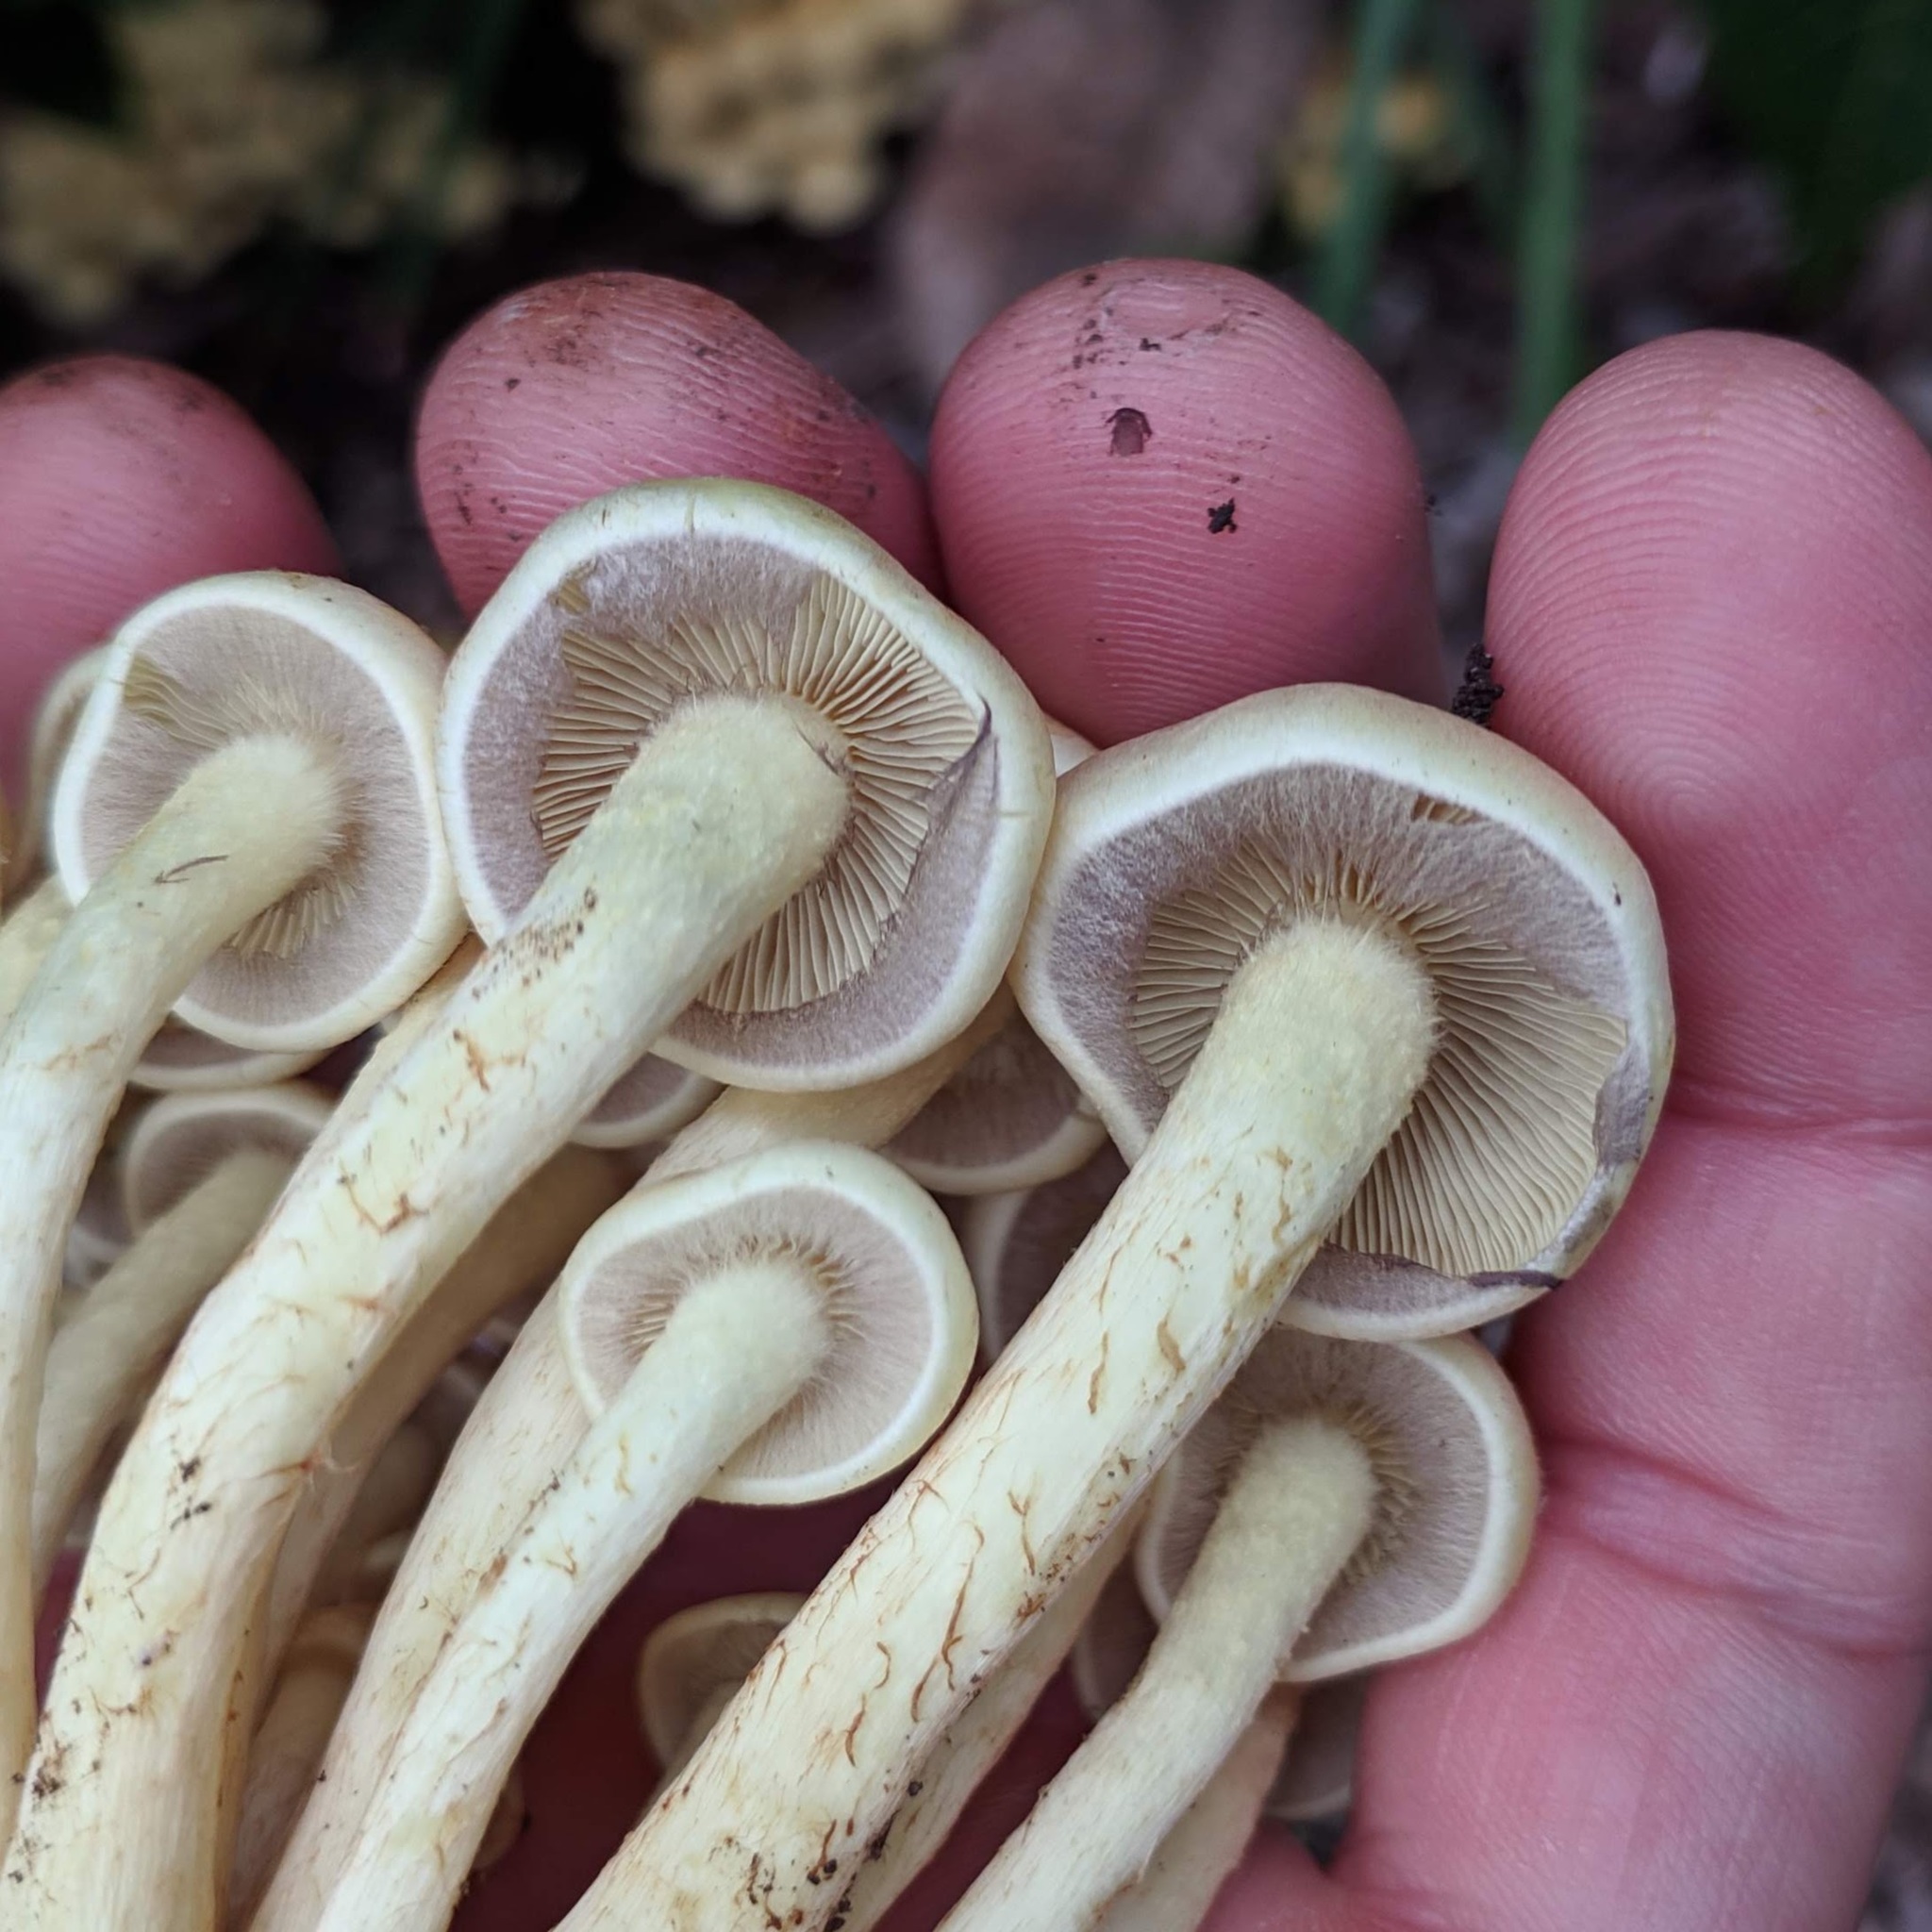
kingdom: Fungi
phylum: Basidiomycota
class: Agaricomycetes
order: Agaricales
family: Strophariaceae
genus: Hypholoma
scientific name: Hypholoma fasciculare
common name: Sulphur tuft
